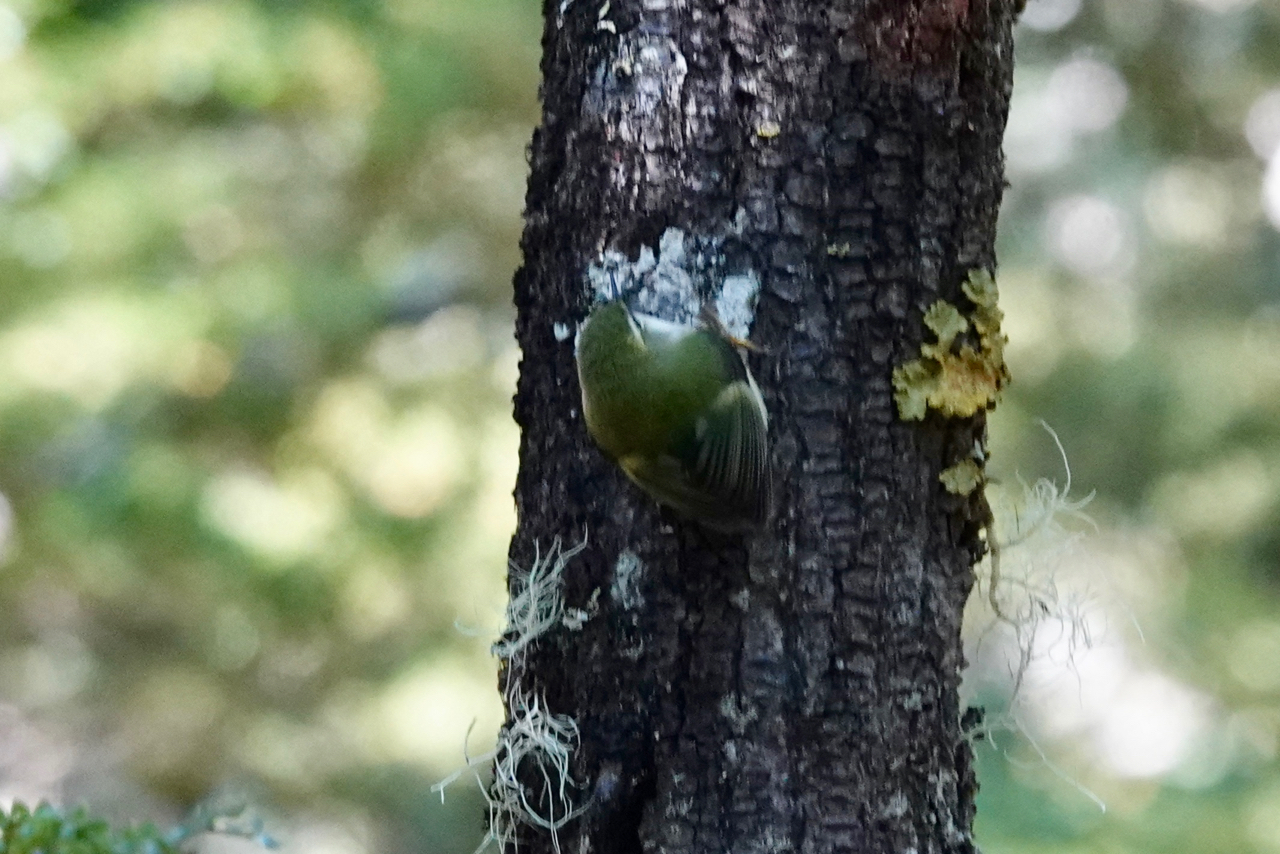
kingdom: Animalia
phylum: Chordata
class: Aves
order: Passeriformes
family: Acanthisittidae
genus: Acanthisitta
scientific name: Acanthisitta chloris
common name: Rifleman
